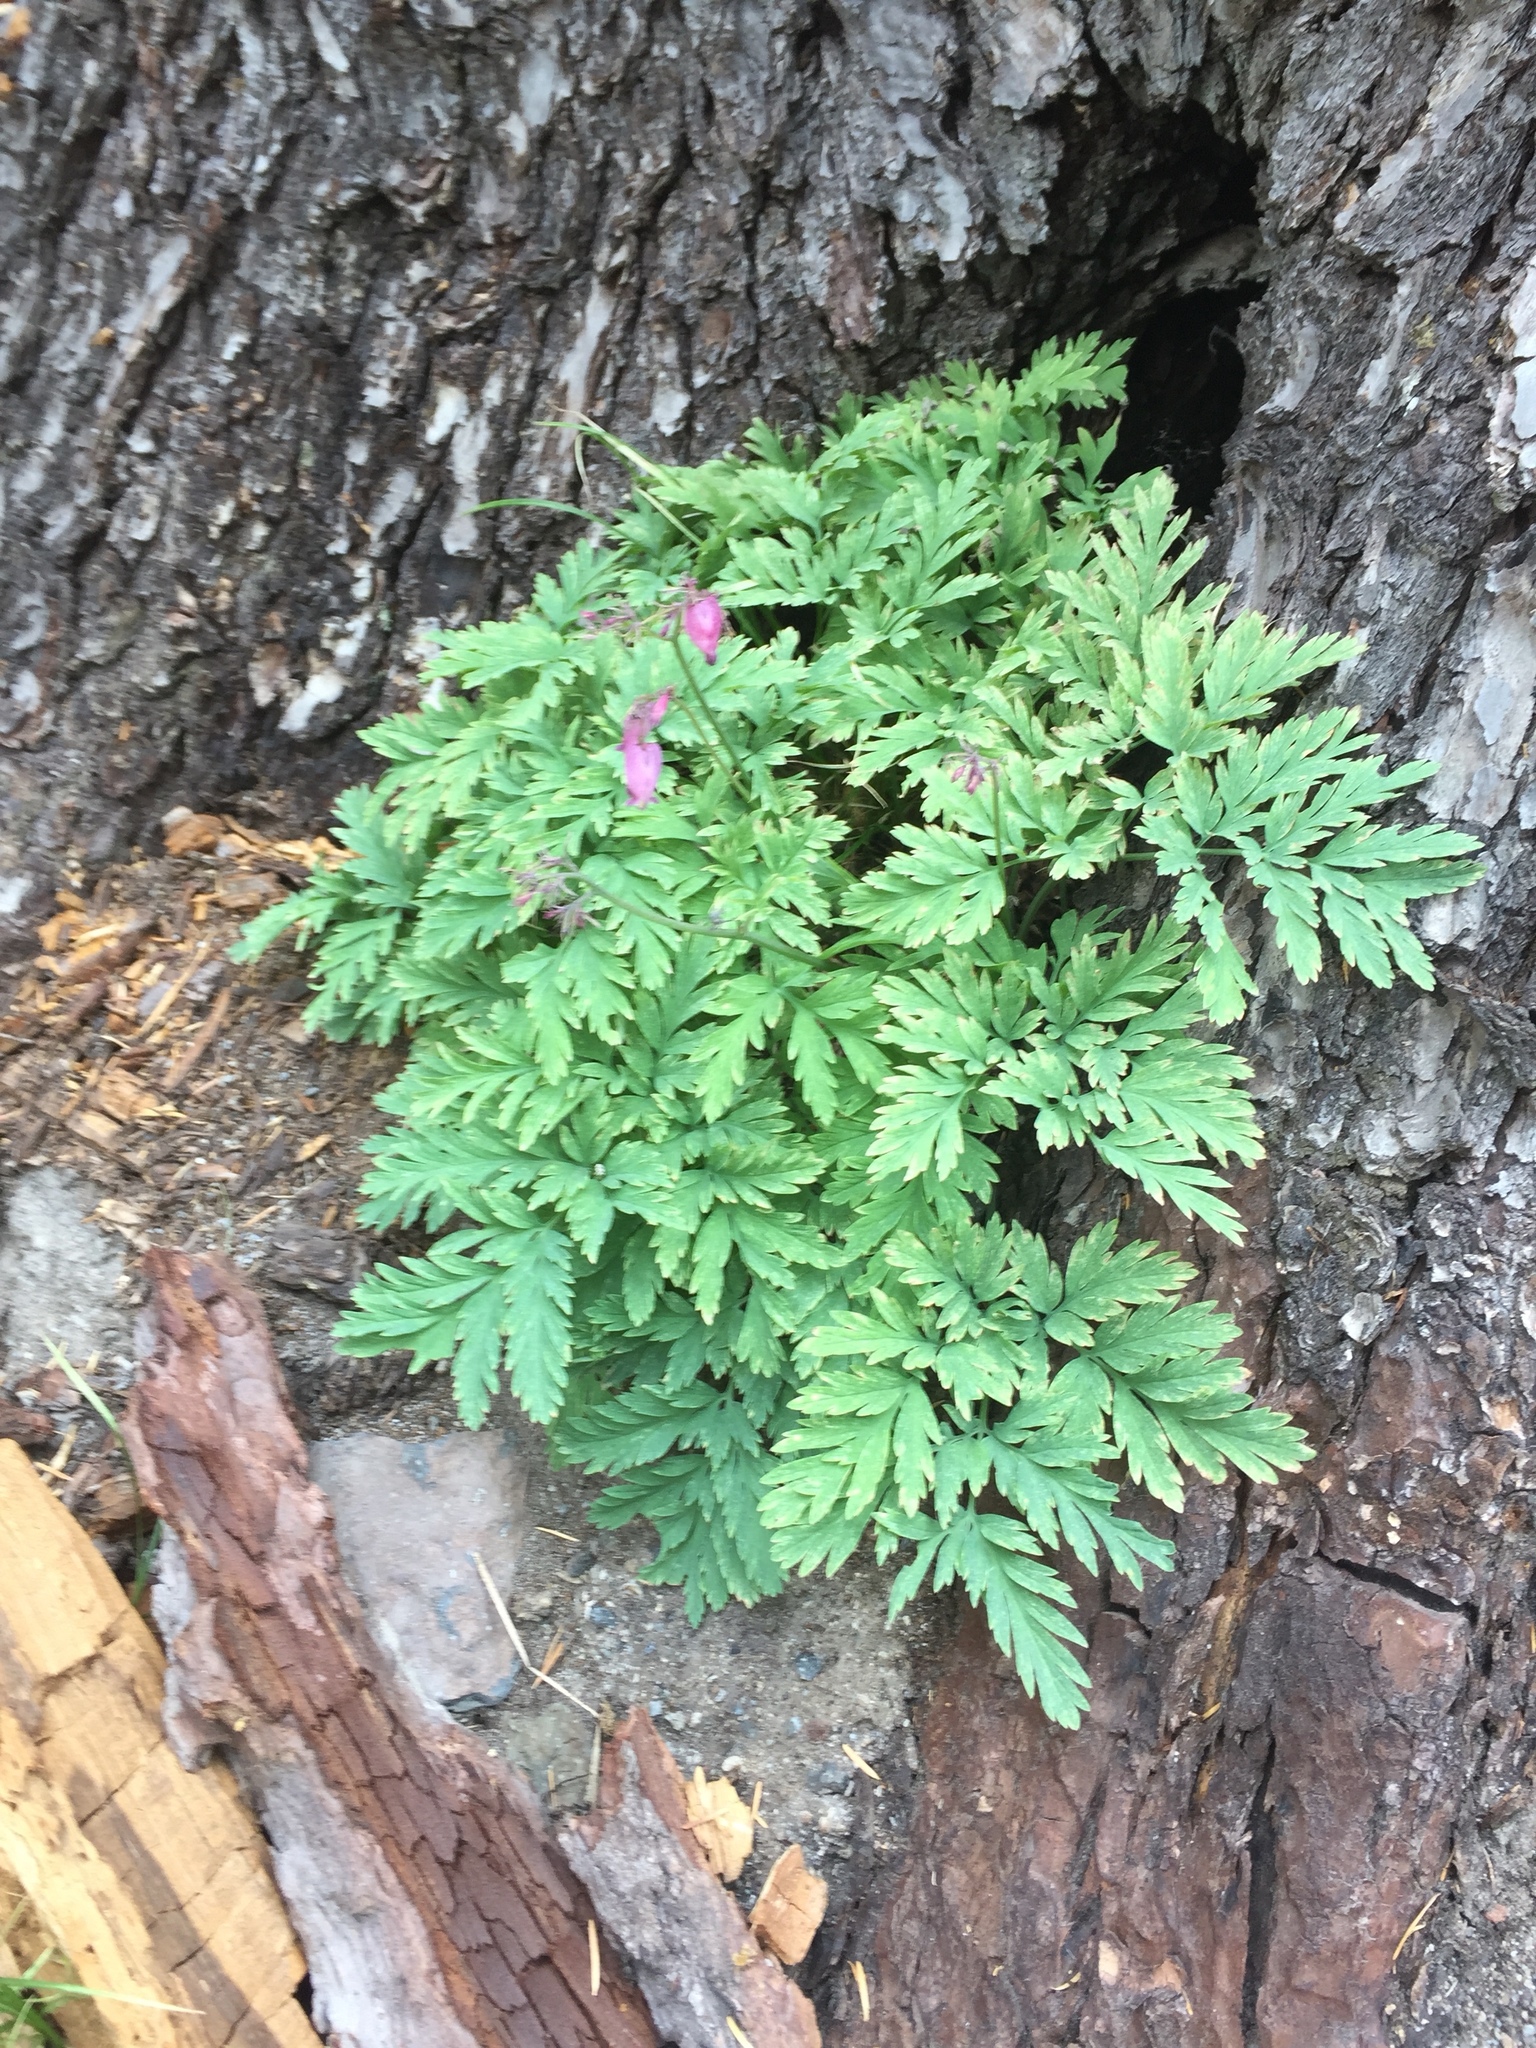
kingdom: Plantae
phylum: Tracheophyta
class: Magnoliopsida
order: Ranunculales
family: Papaveraceae
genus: Dicentra
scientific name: Dicentra formosa
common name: Bleeding-heart
